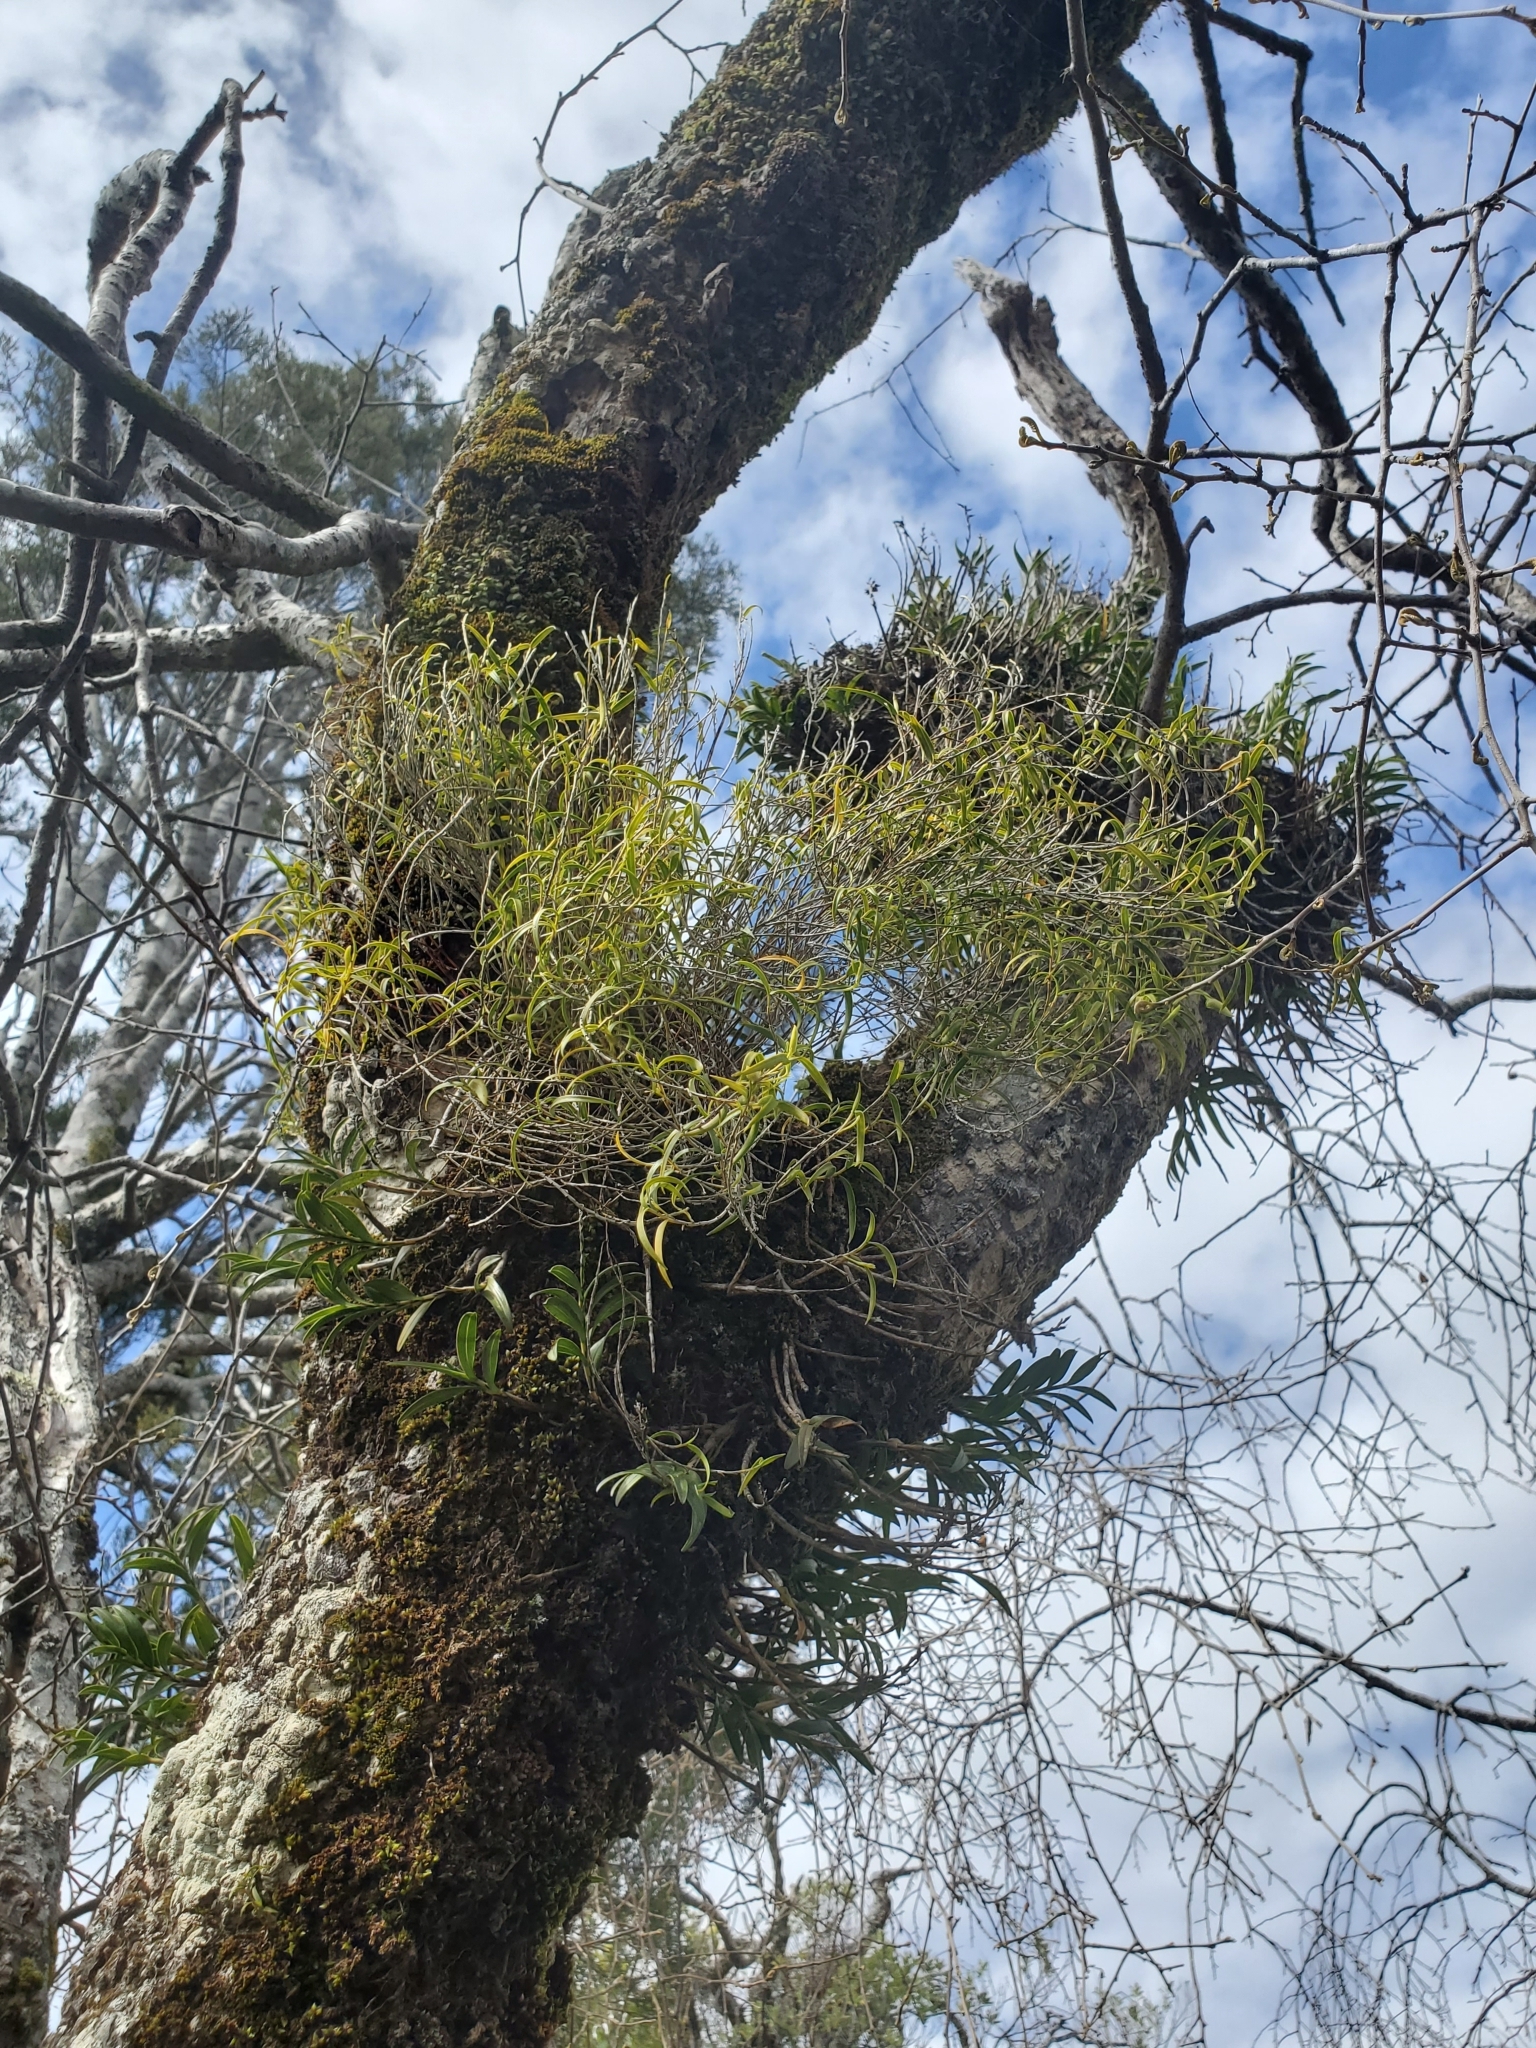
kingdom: Plantae
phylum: Tracheophyta
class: Liliopsida
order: Asparagales
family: Orchidaceae
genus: Dendrobium
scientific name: Dendrobium cunninghamii
